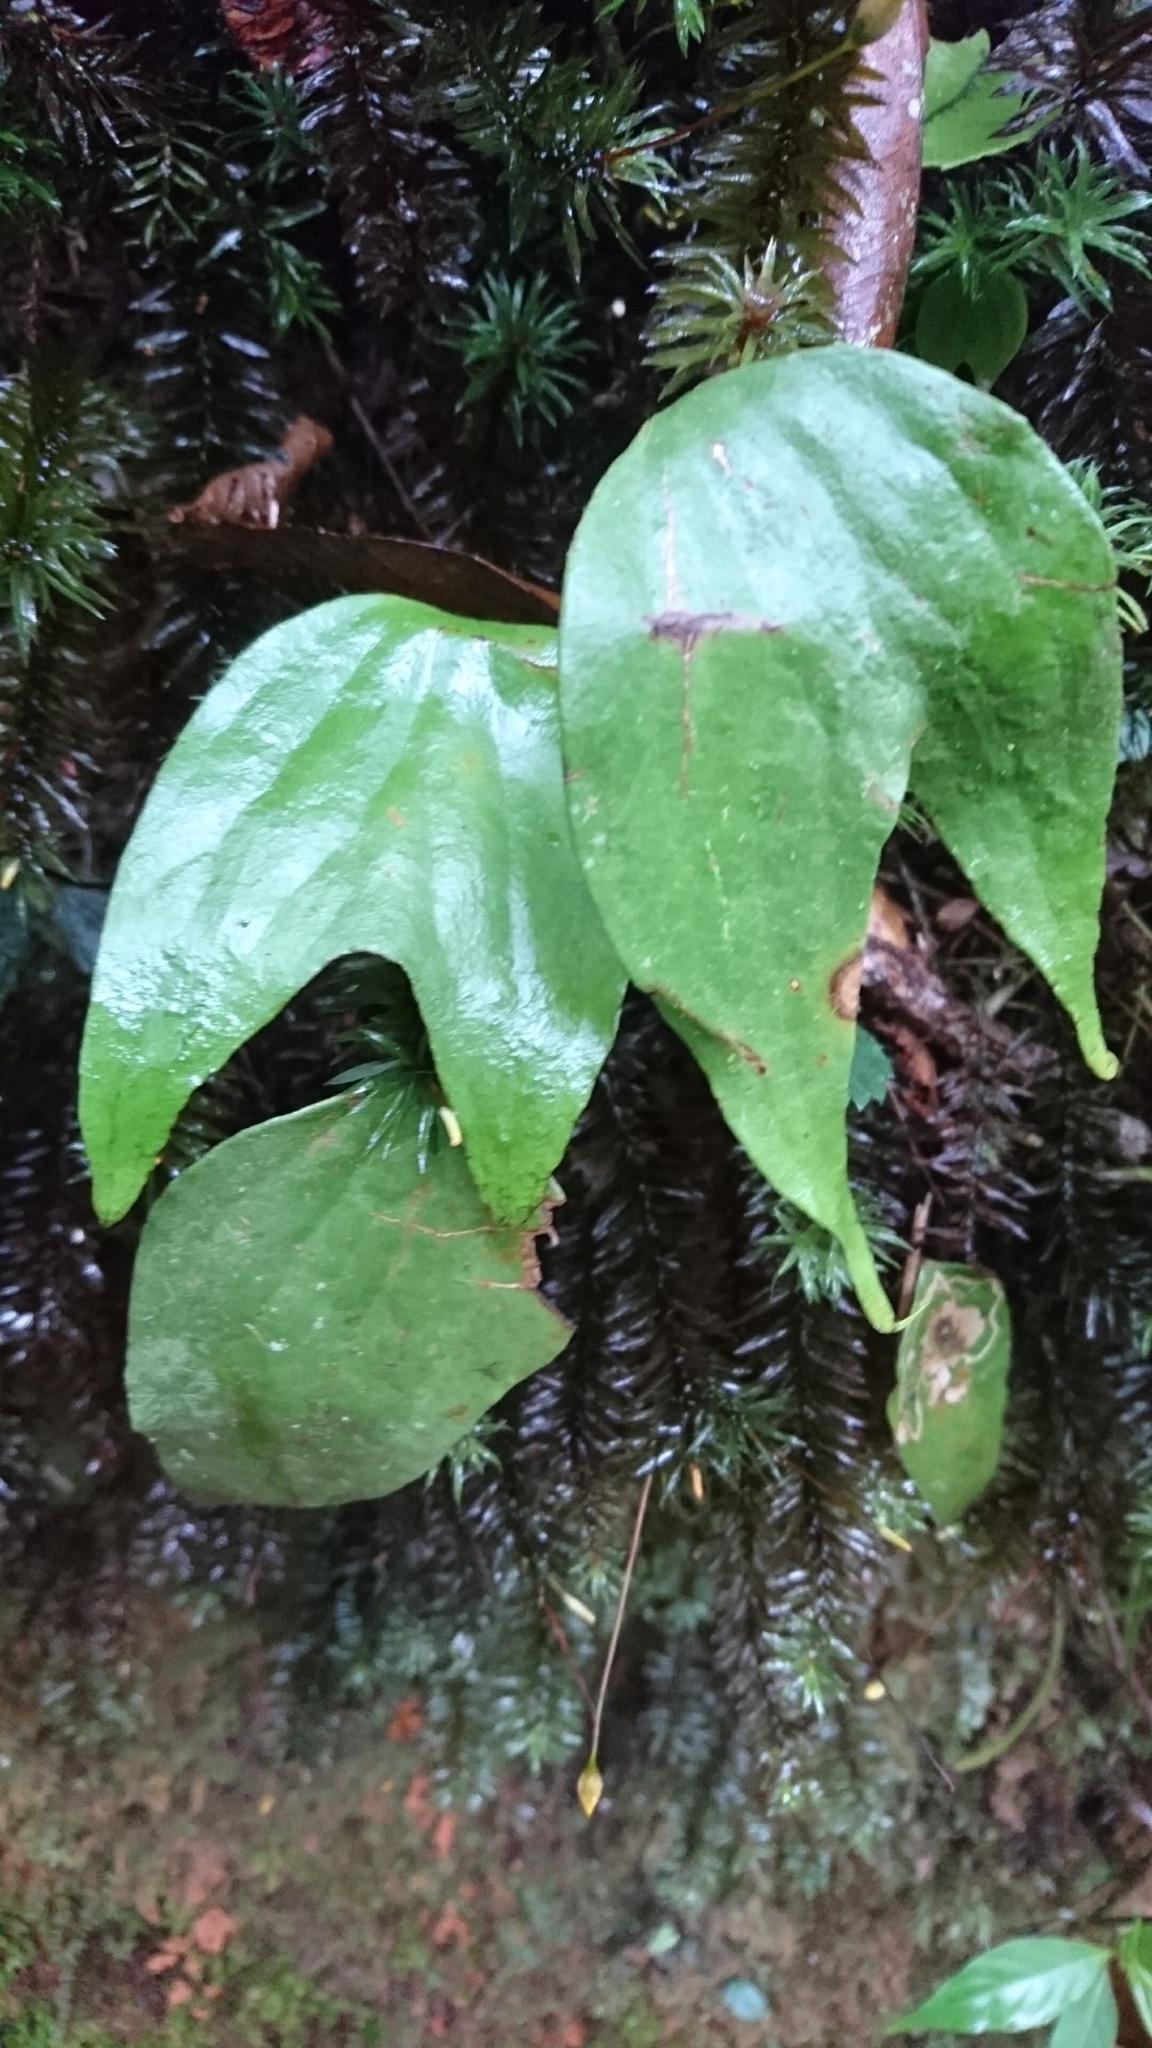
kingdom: Plantae
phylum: Tracheophyta
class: Polypodiopsida
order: Gleicheniales
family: Dipteridaceae
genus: Cheiropleuria
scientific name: Cheiropleuria bicuspis
